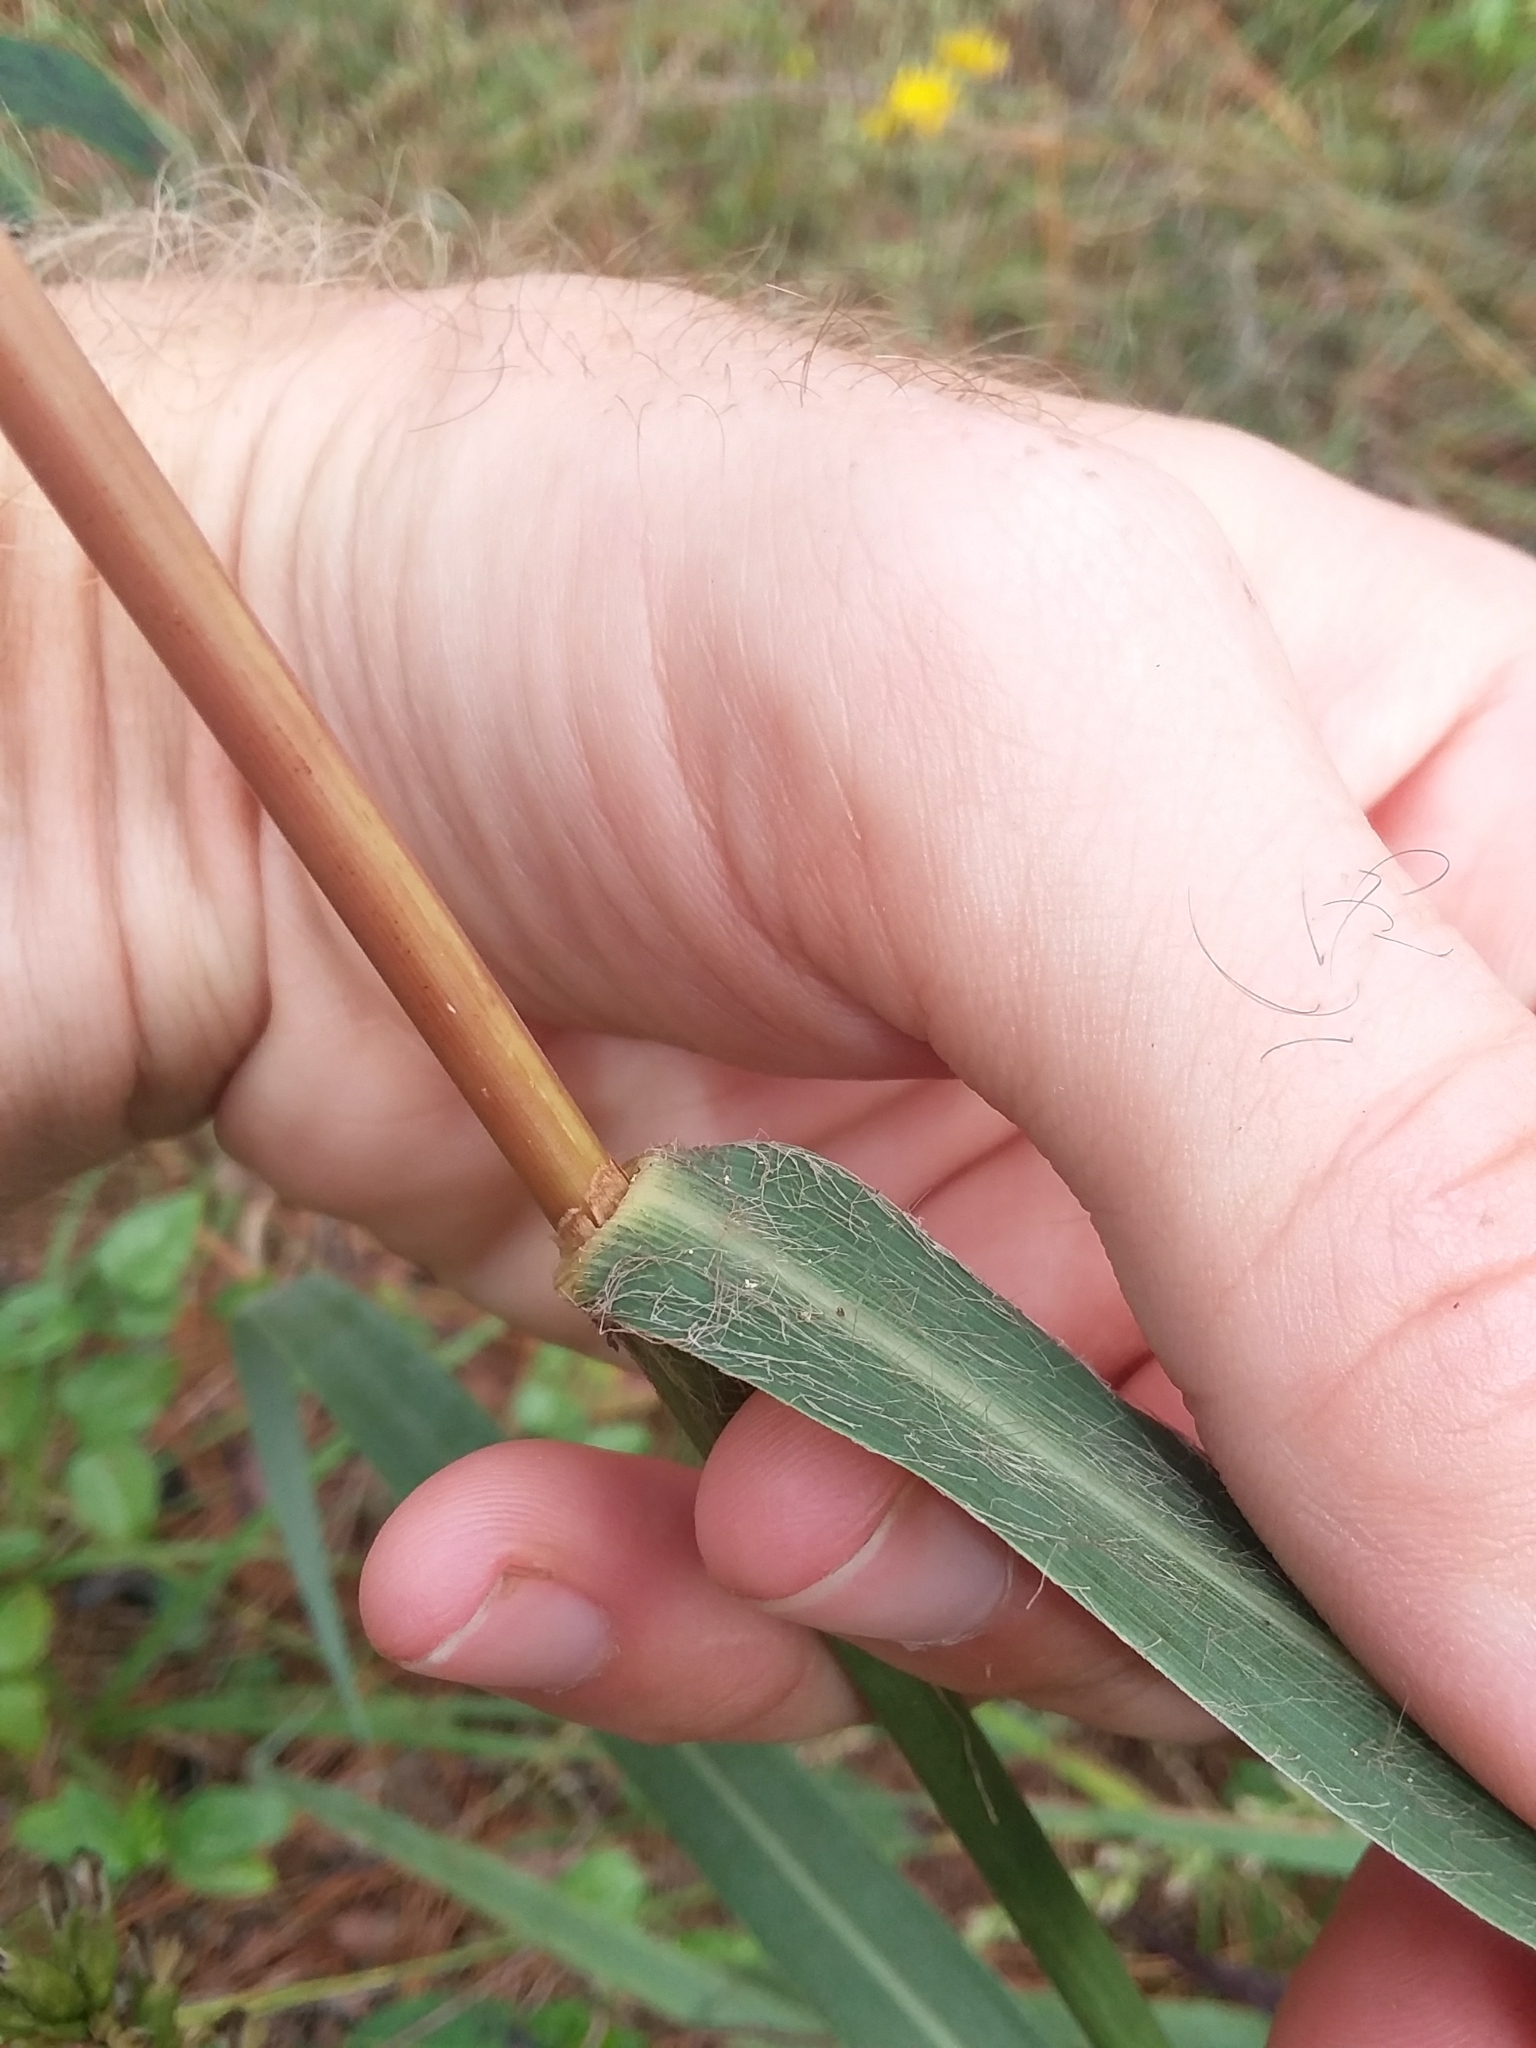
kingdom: Plantae
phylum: Tracheophyta
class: Liliopsida
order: Poales
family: Poaceae
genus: Andropogon
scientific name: Andropogon gerardi
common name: Big bluestem
